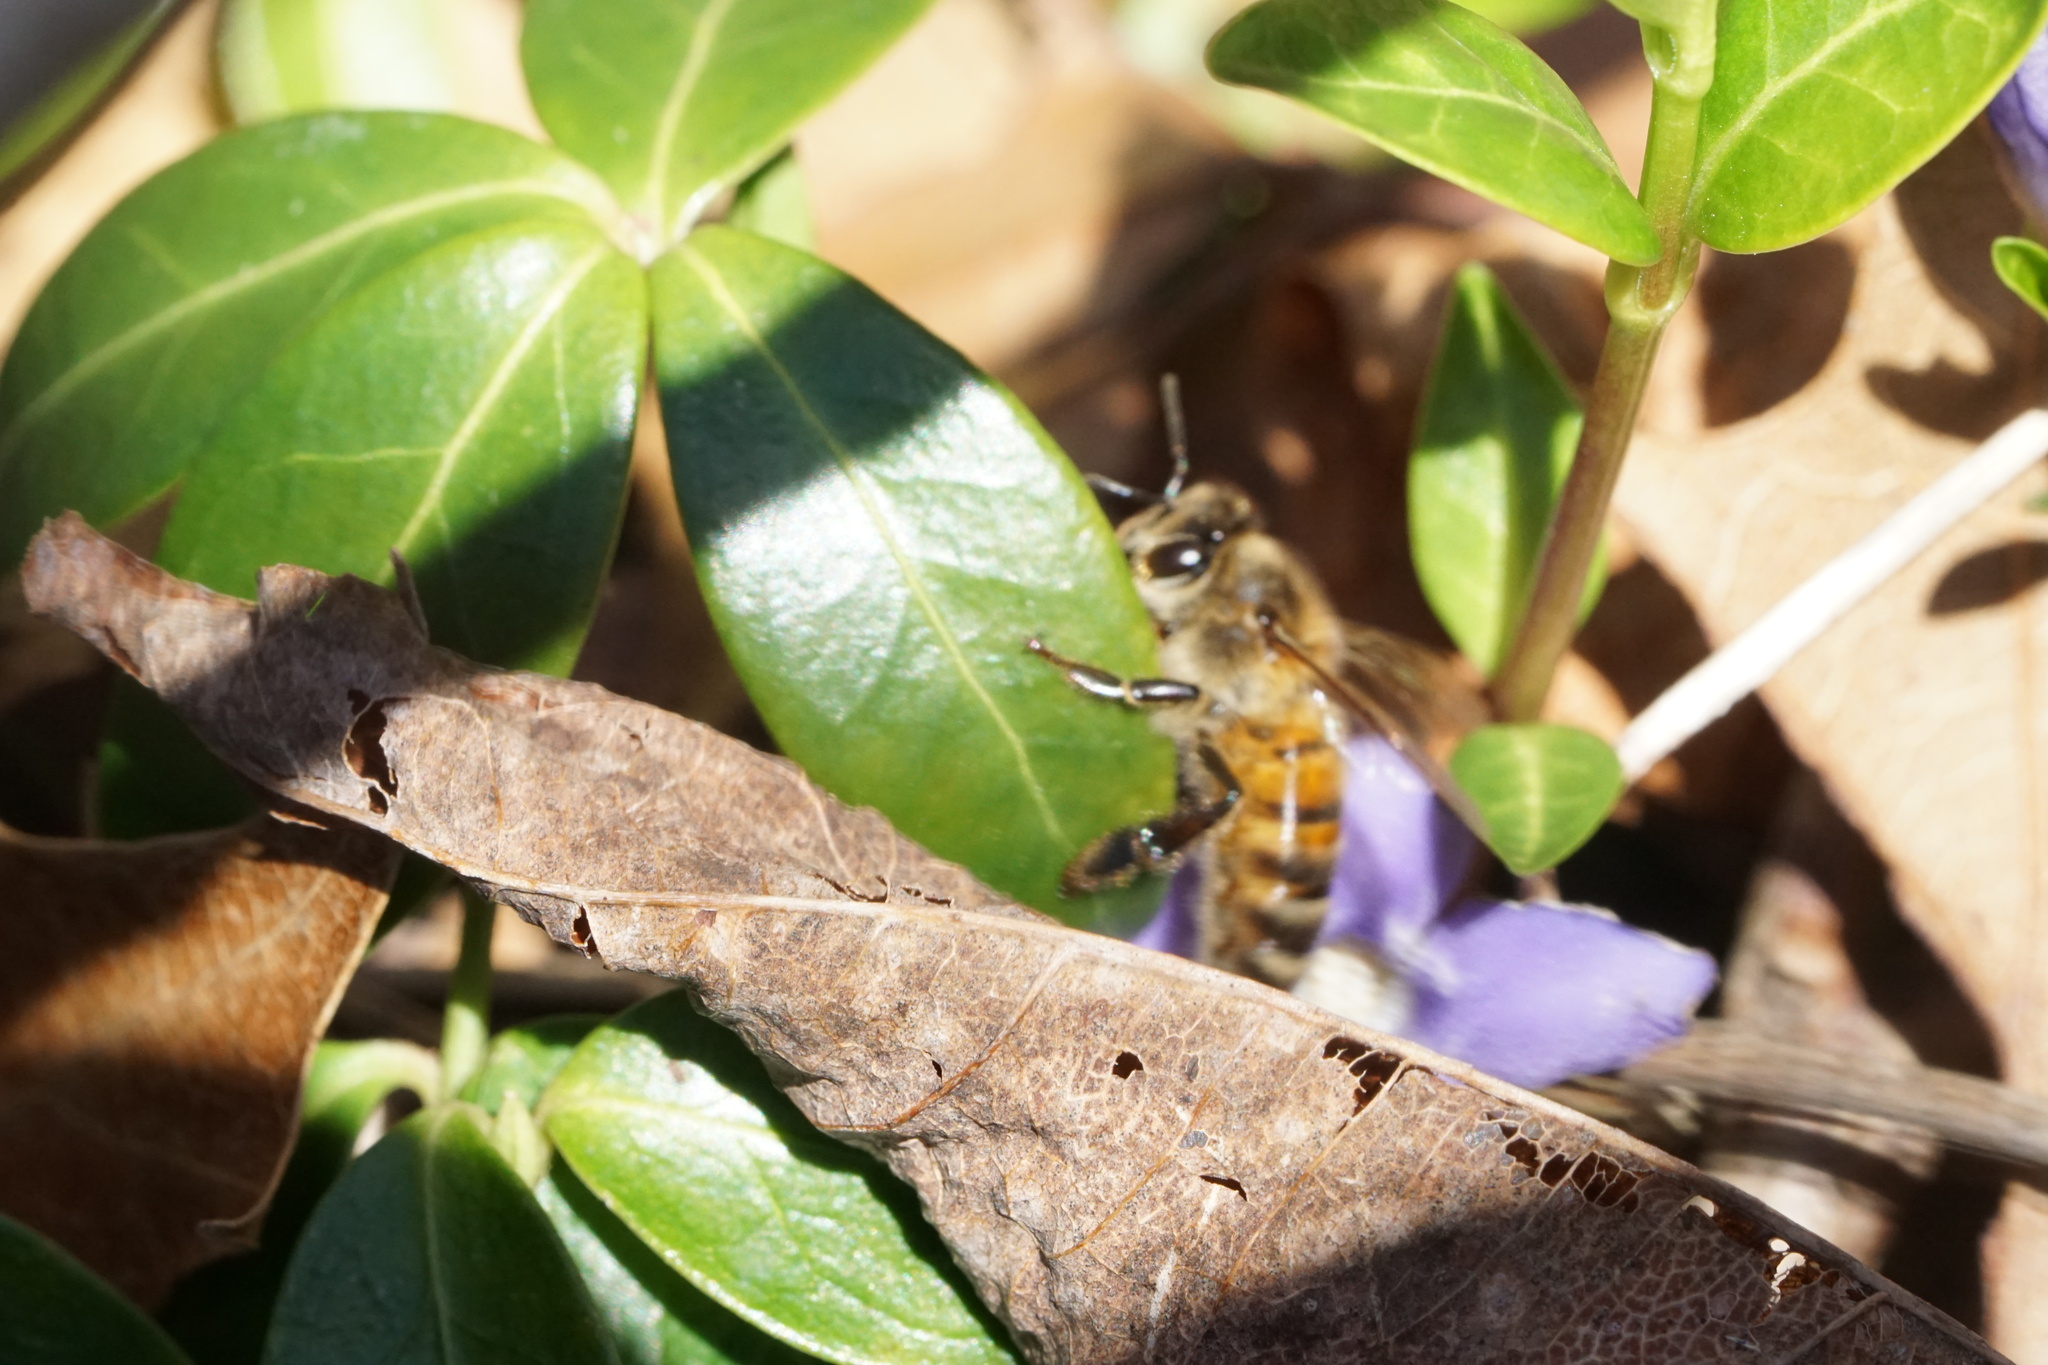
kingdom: Animalia
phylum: Arthropoda
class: Insecta
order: Hymenoptera
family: Apidae
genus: Apis
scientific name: Apis mellifera
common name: Honey bee
